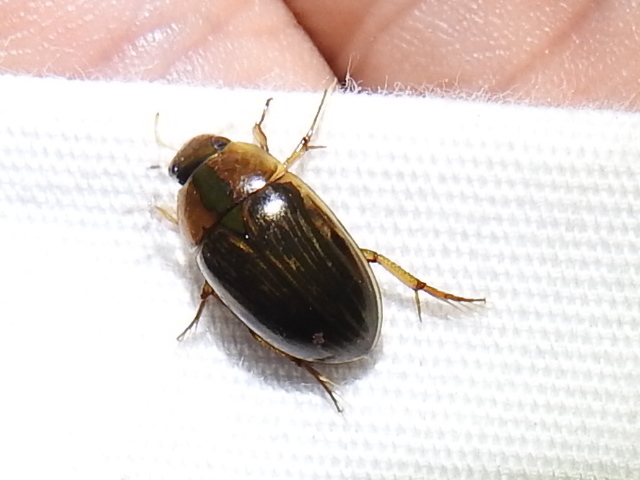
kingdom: Animalia
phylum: Arthropoda
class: Insecta
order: Coleoptera
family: Hydrophilidae
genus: Tropisternus
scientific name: Tropisternus collaris
